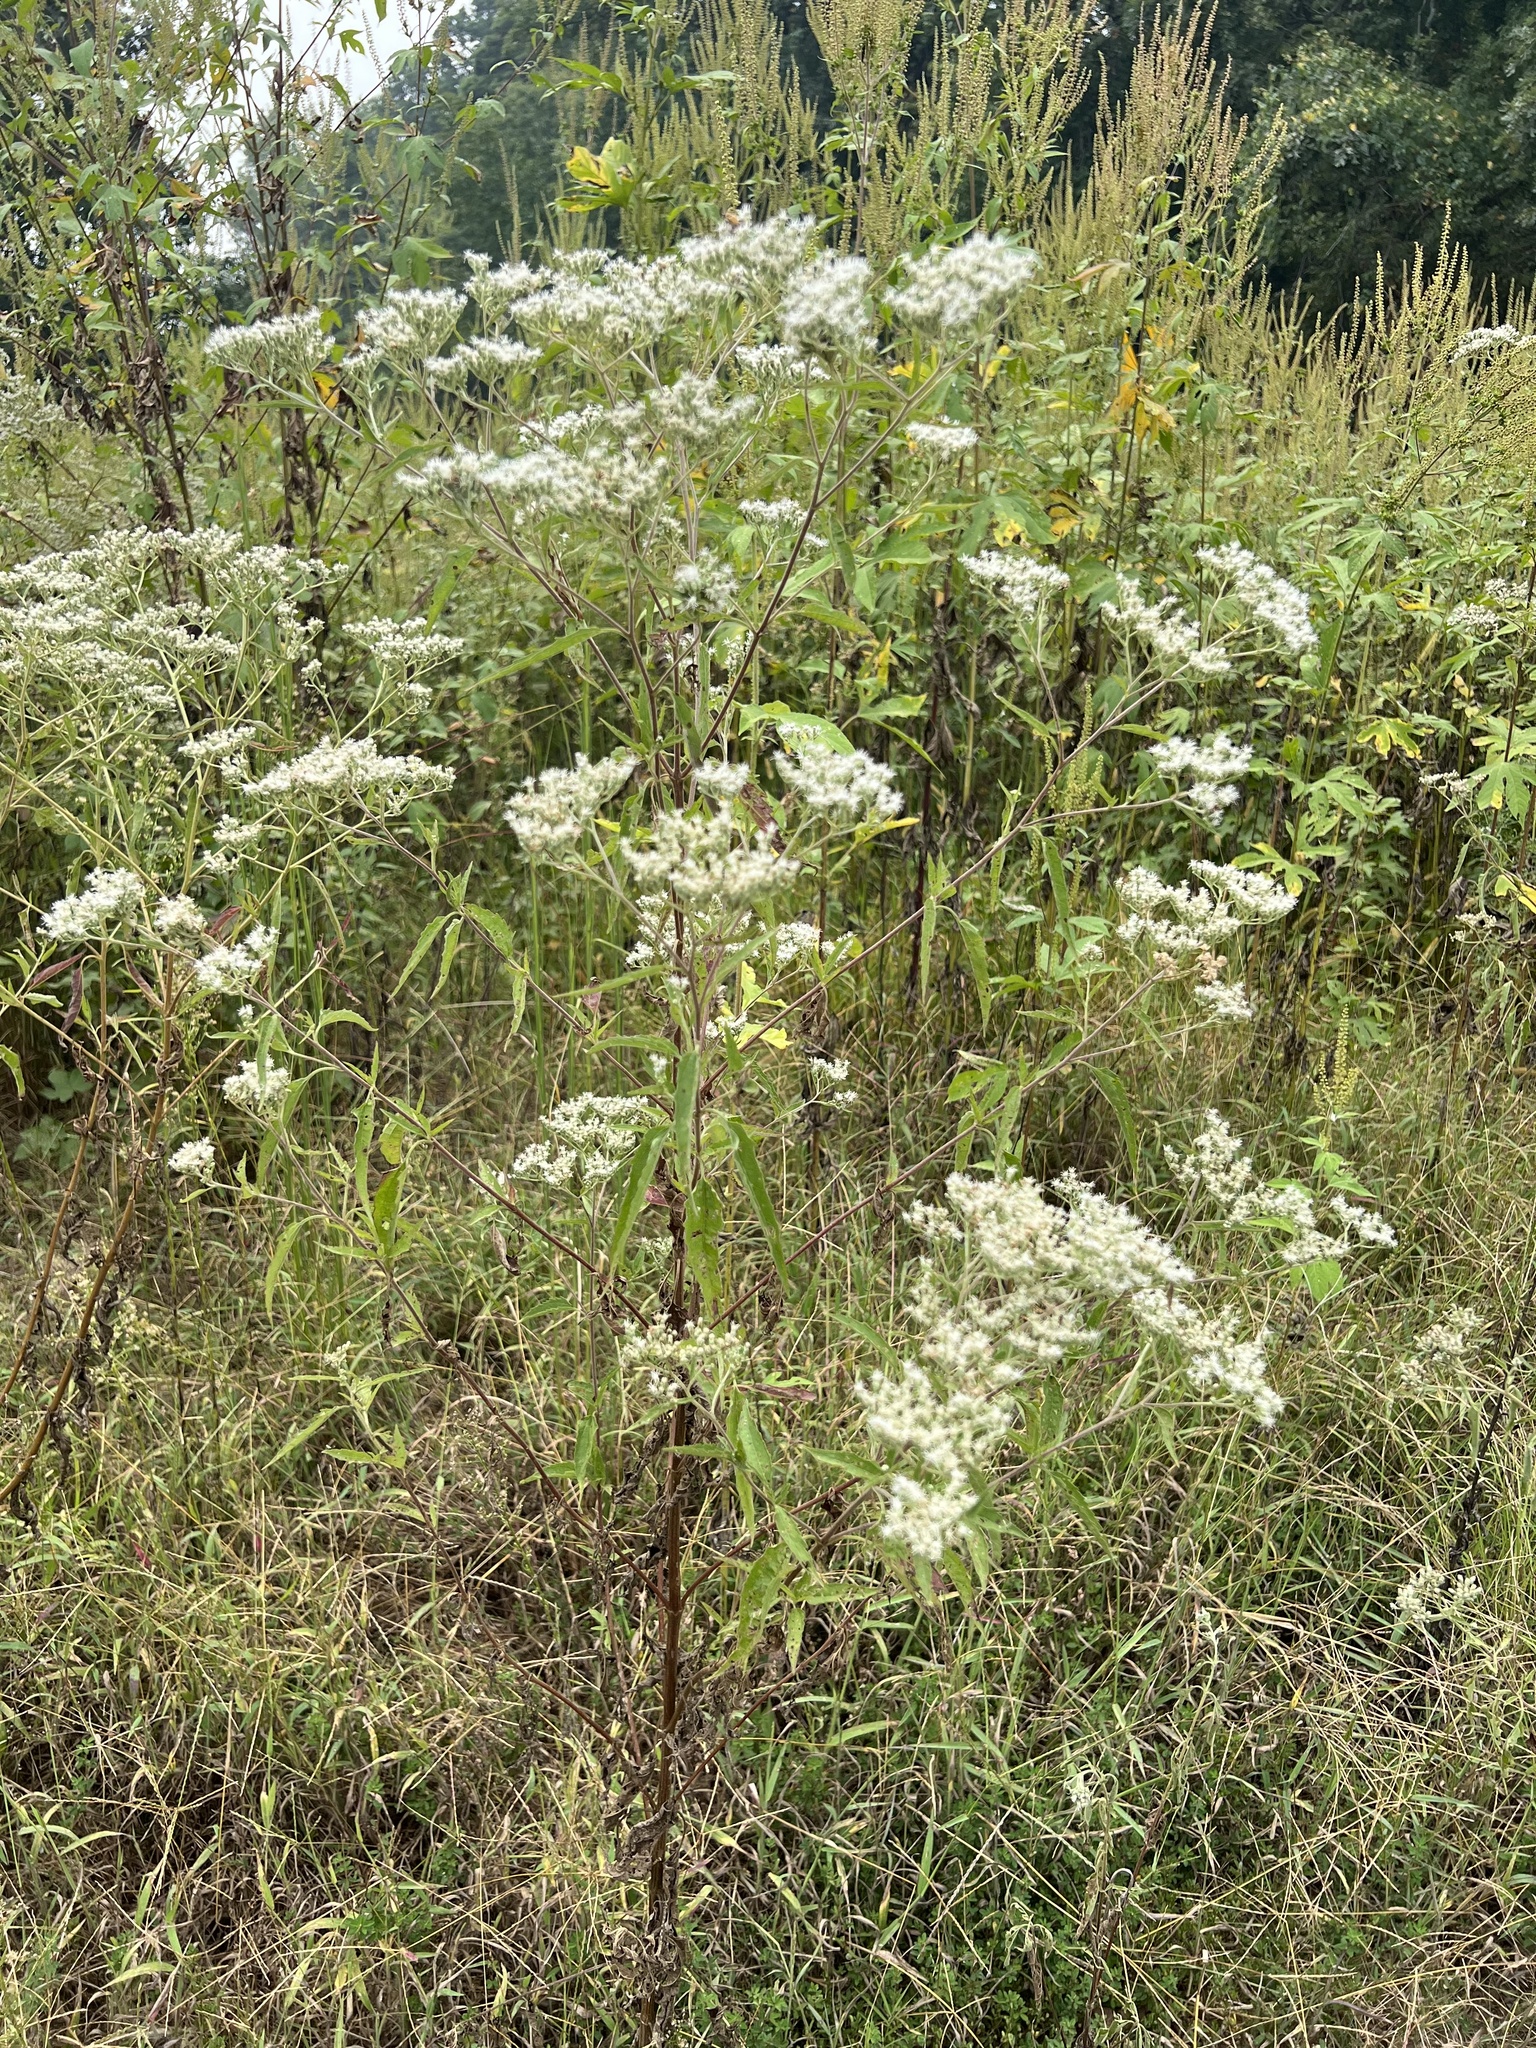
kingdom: Plantae
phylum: Tracheophyta
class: Magnoliopsida
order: Asterales
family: Asteraceae
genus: Eupatorium
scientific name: Eupatorium serotinum
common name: Late boneset
